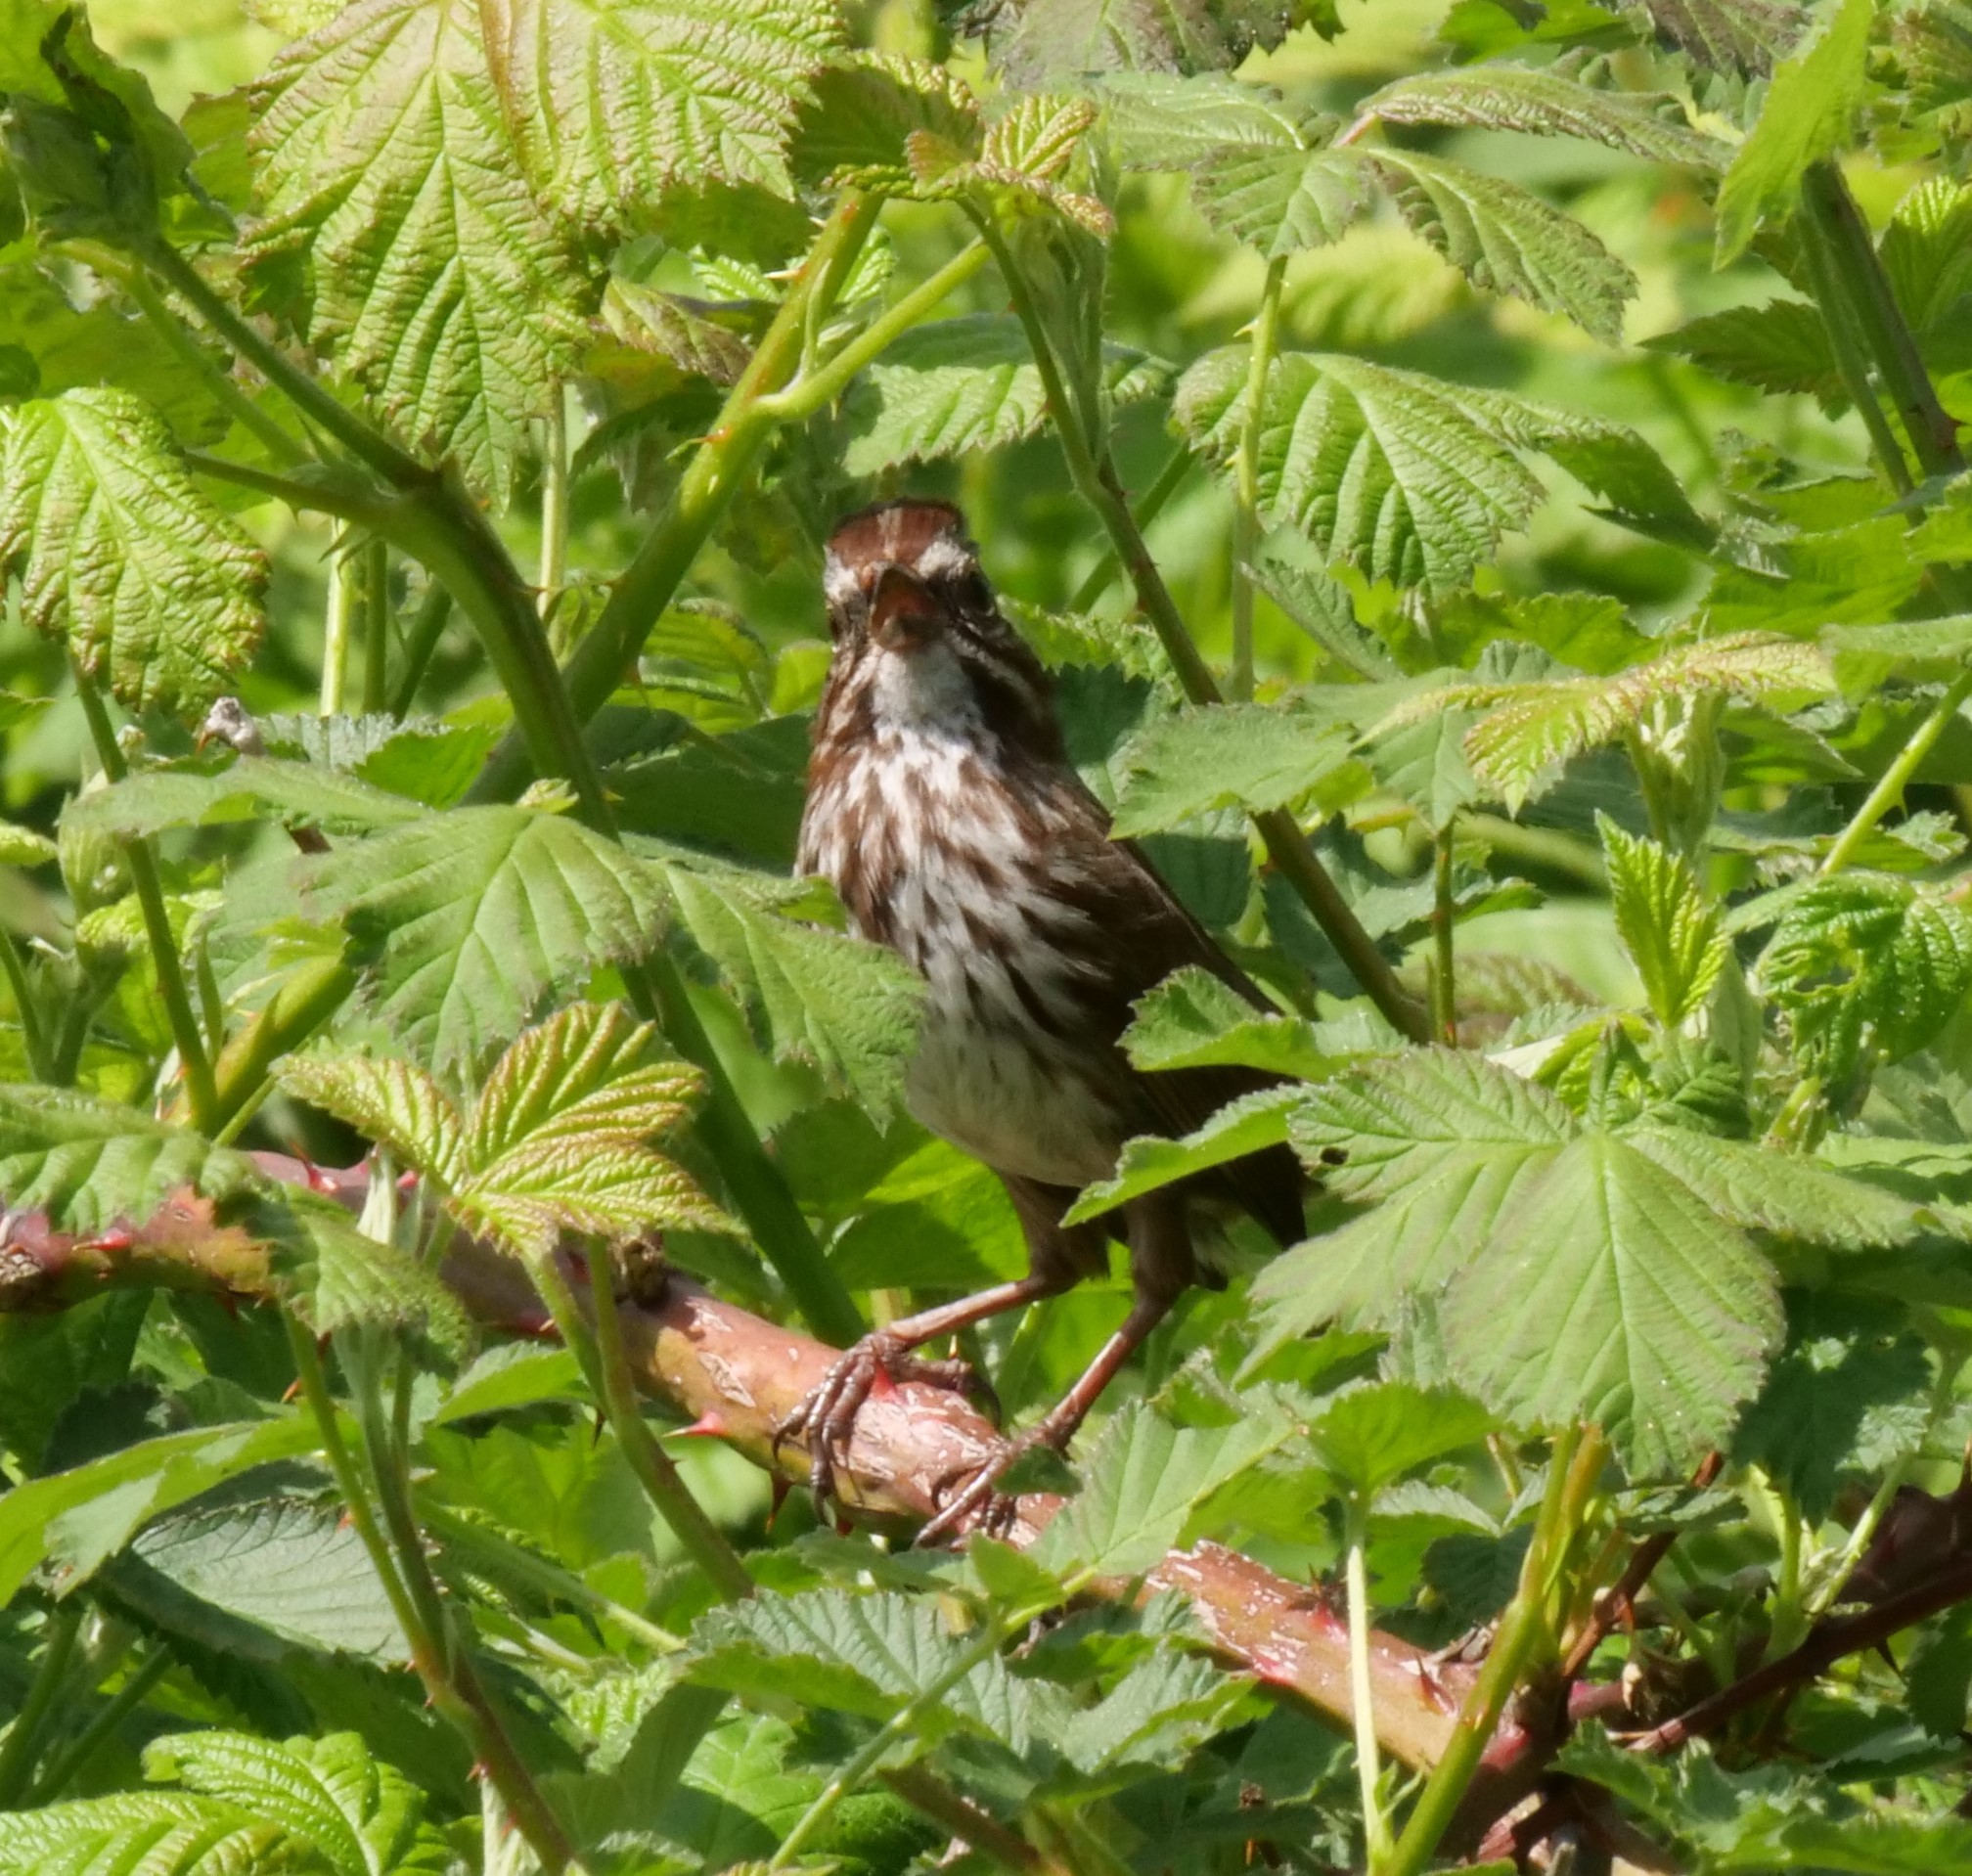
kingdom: Animalia
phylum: Chordata
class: Aves
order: Passeriformes
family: Passerellidae
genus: Melospiza
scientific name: Melospiza melodia
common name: Song sparrow
